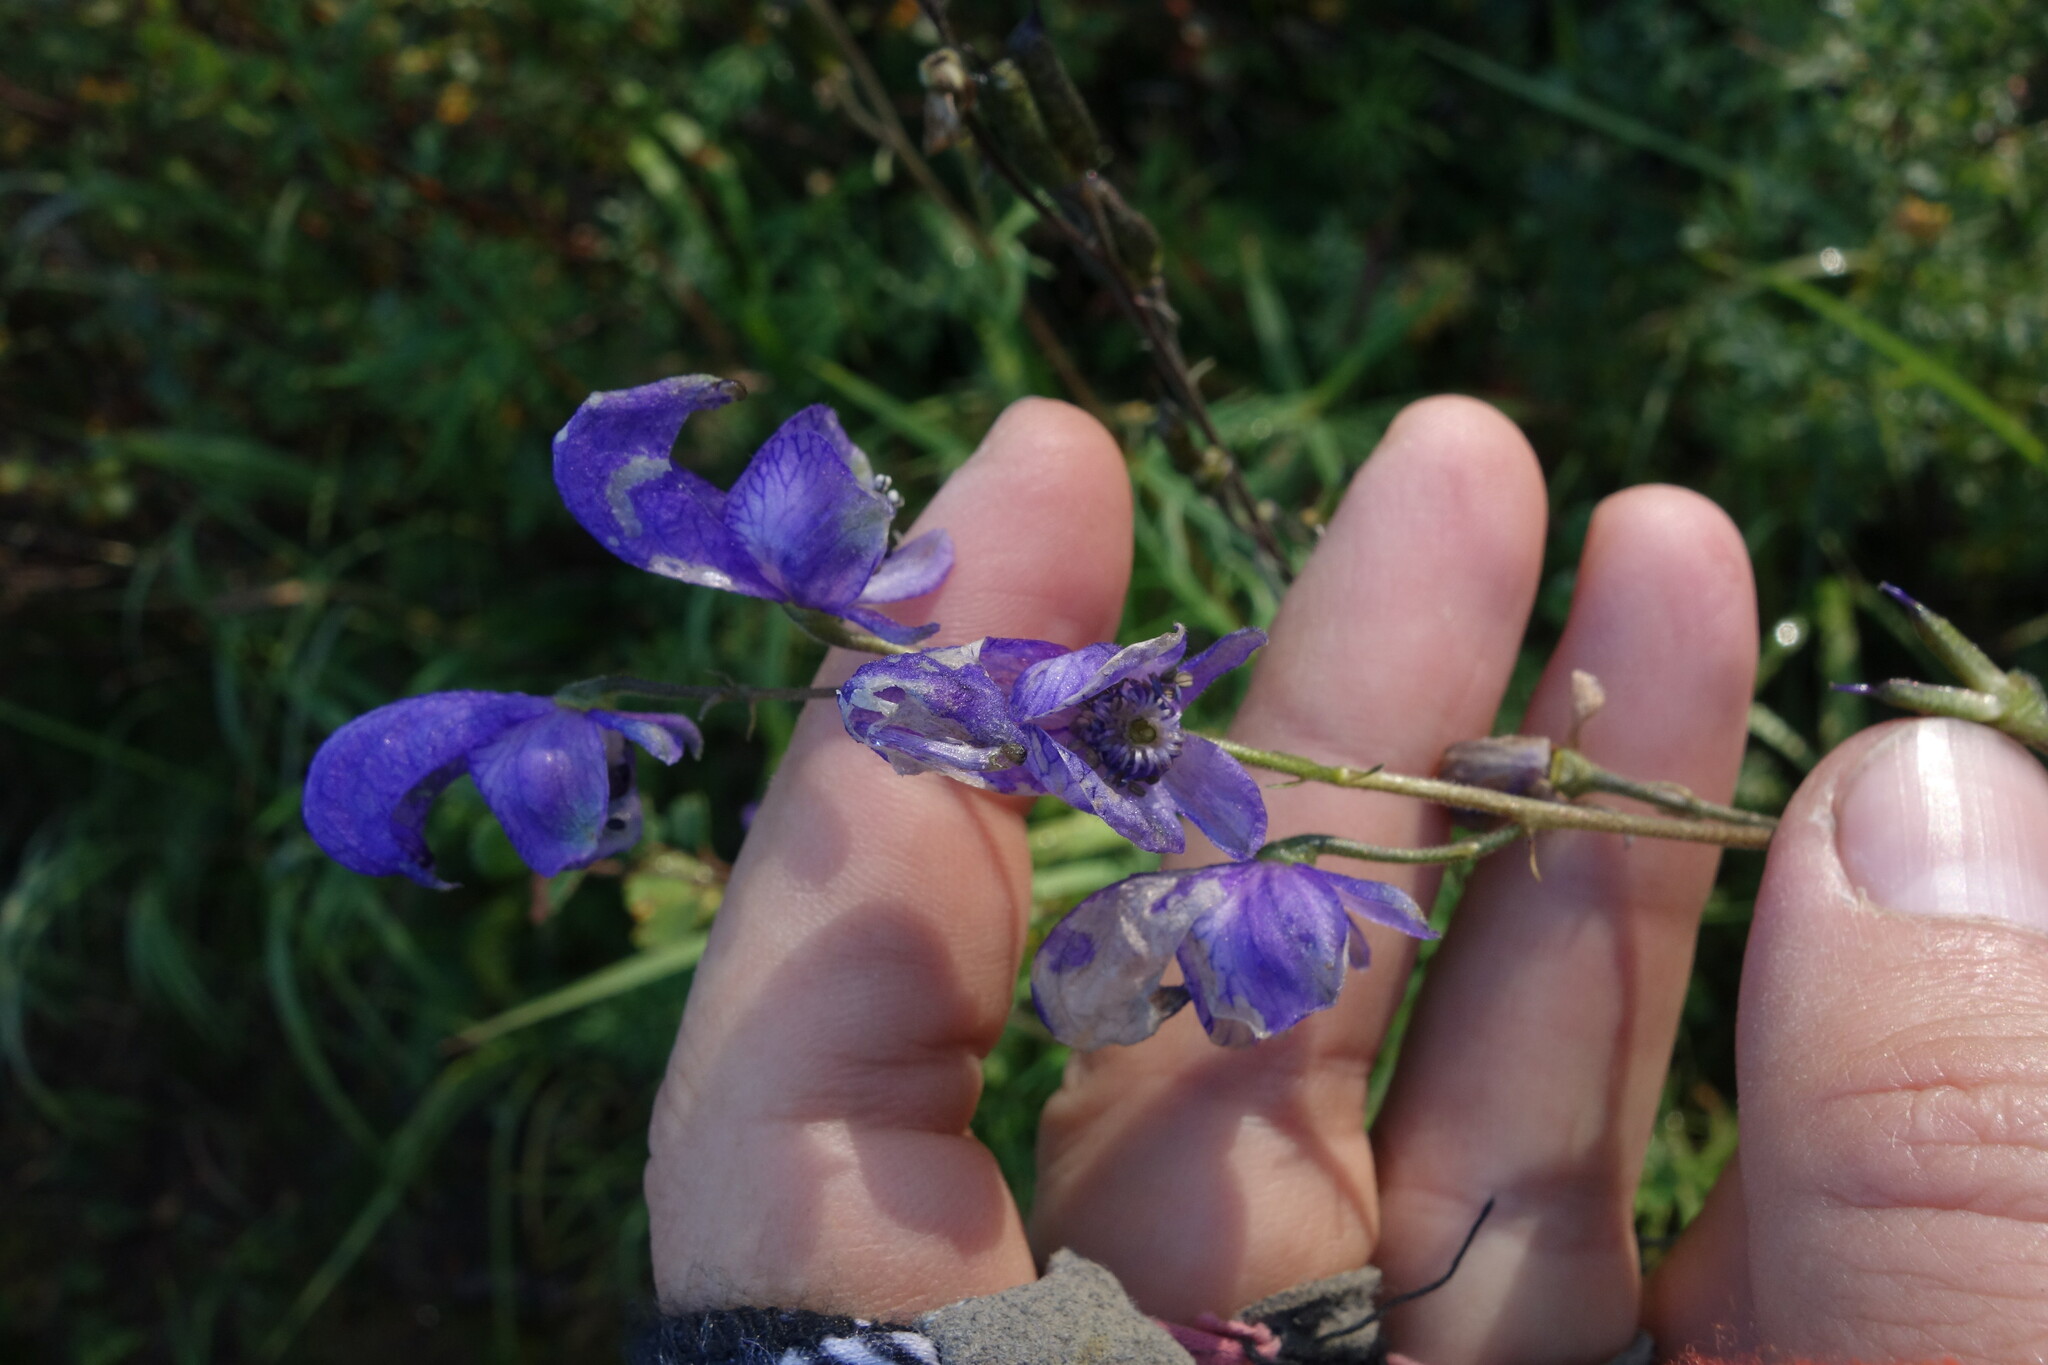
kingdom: Plantae
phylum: Tracheophyta
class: Magnoliopsida
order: Ranunculales
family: Ranunculaceae
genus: Aconitum
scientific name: Aconitum baicalense
